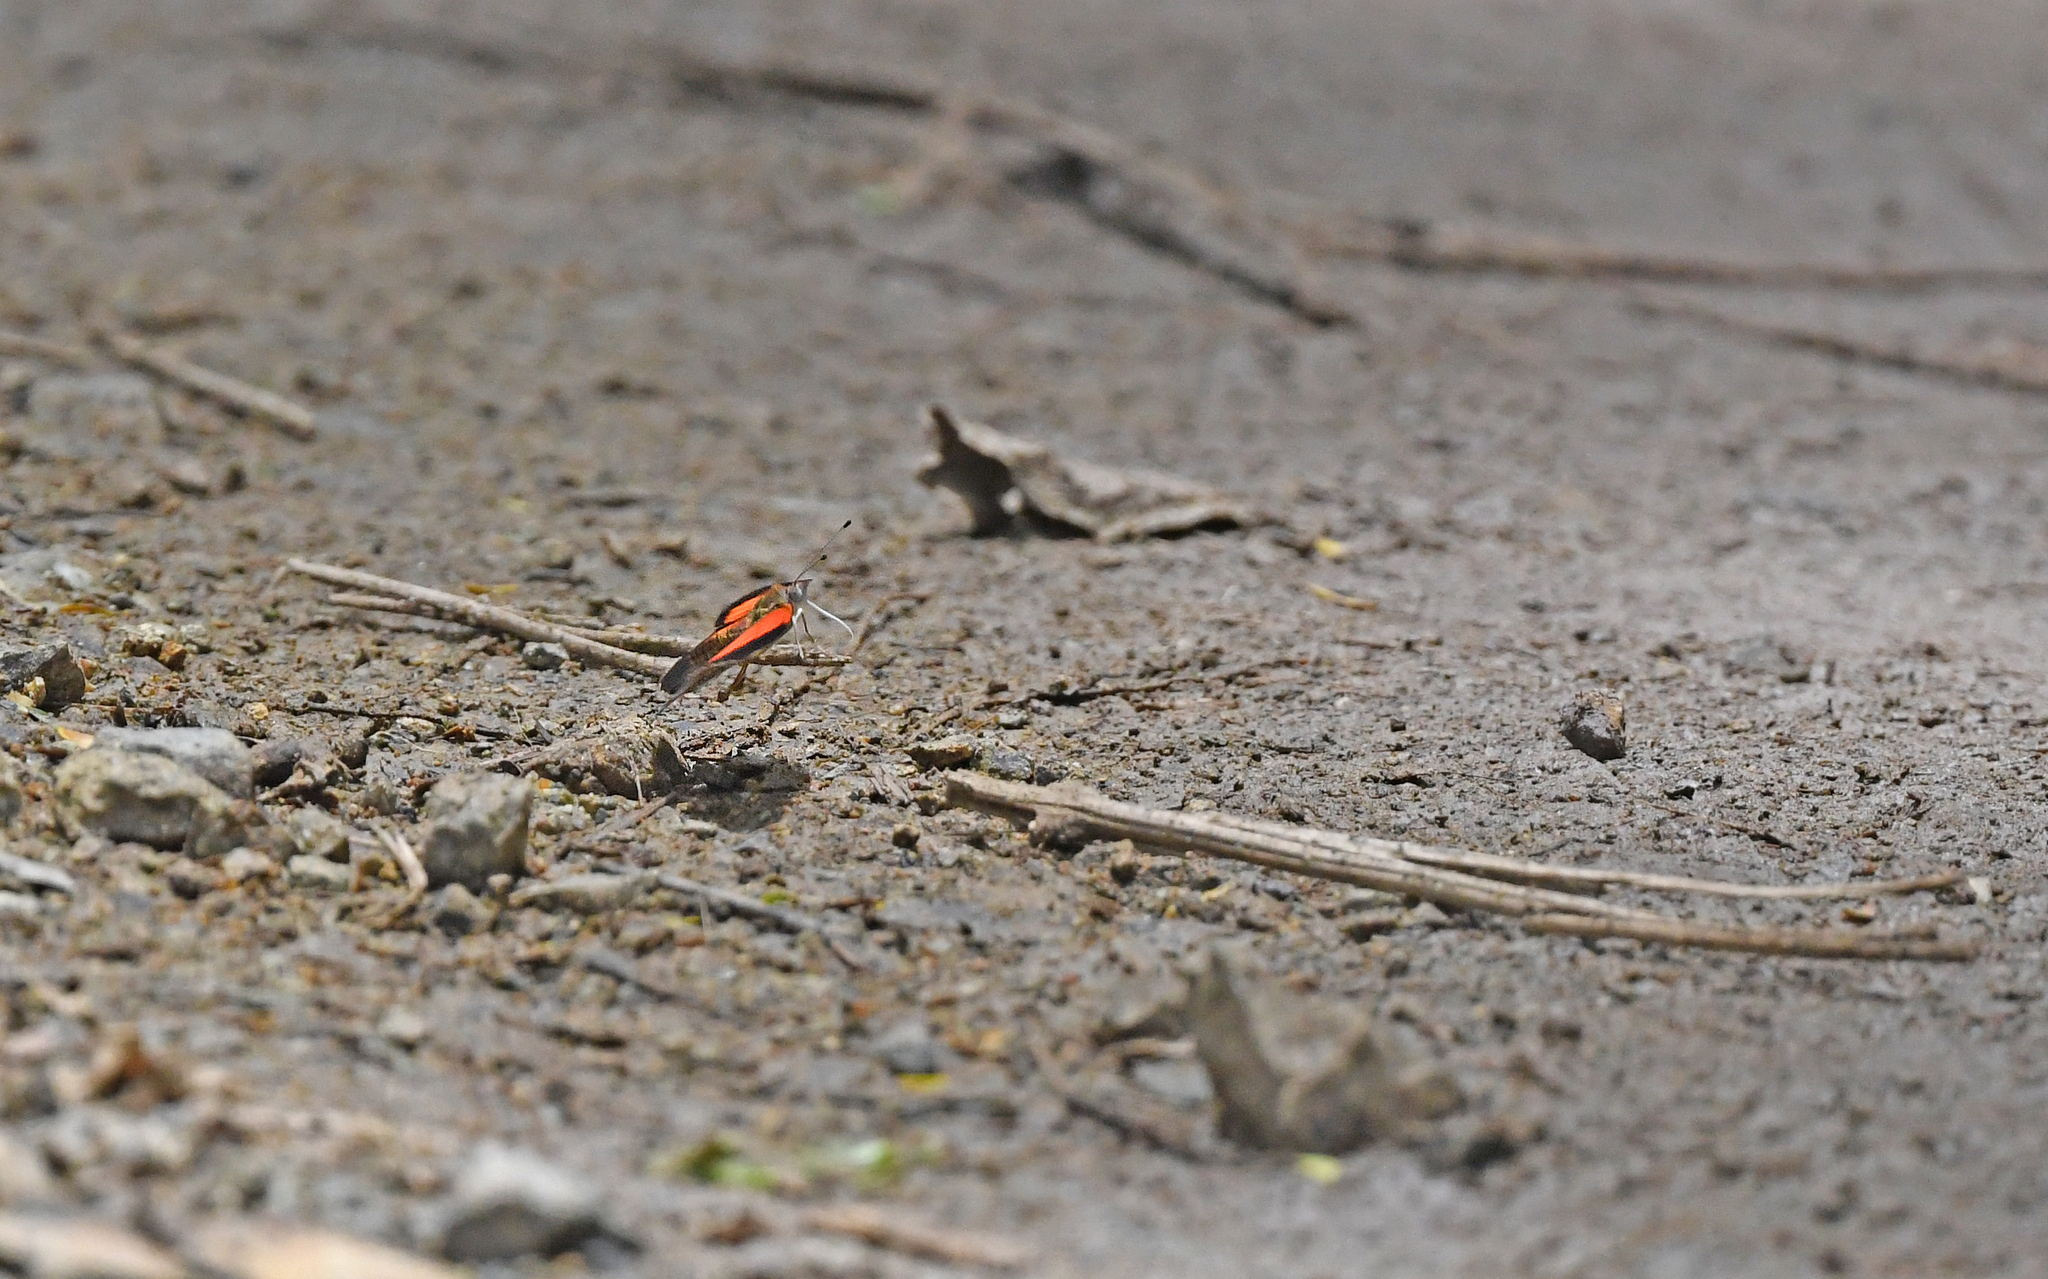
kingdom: Animalia
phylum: Arthropoda
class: Insecta
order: Lepidoptera
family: Nymphalidae
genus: Haematera
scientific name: Haematera pyrame
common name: Blind eighty-eight
